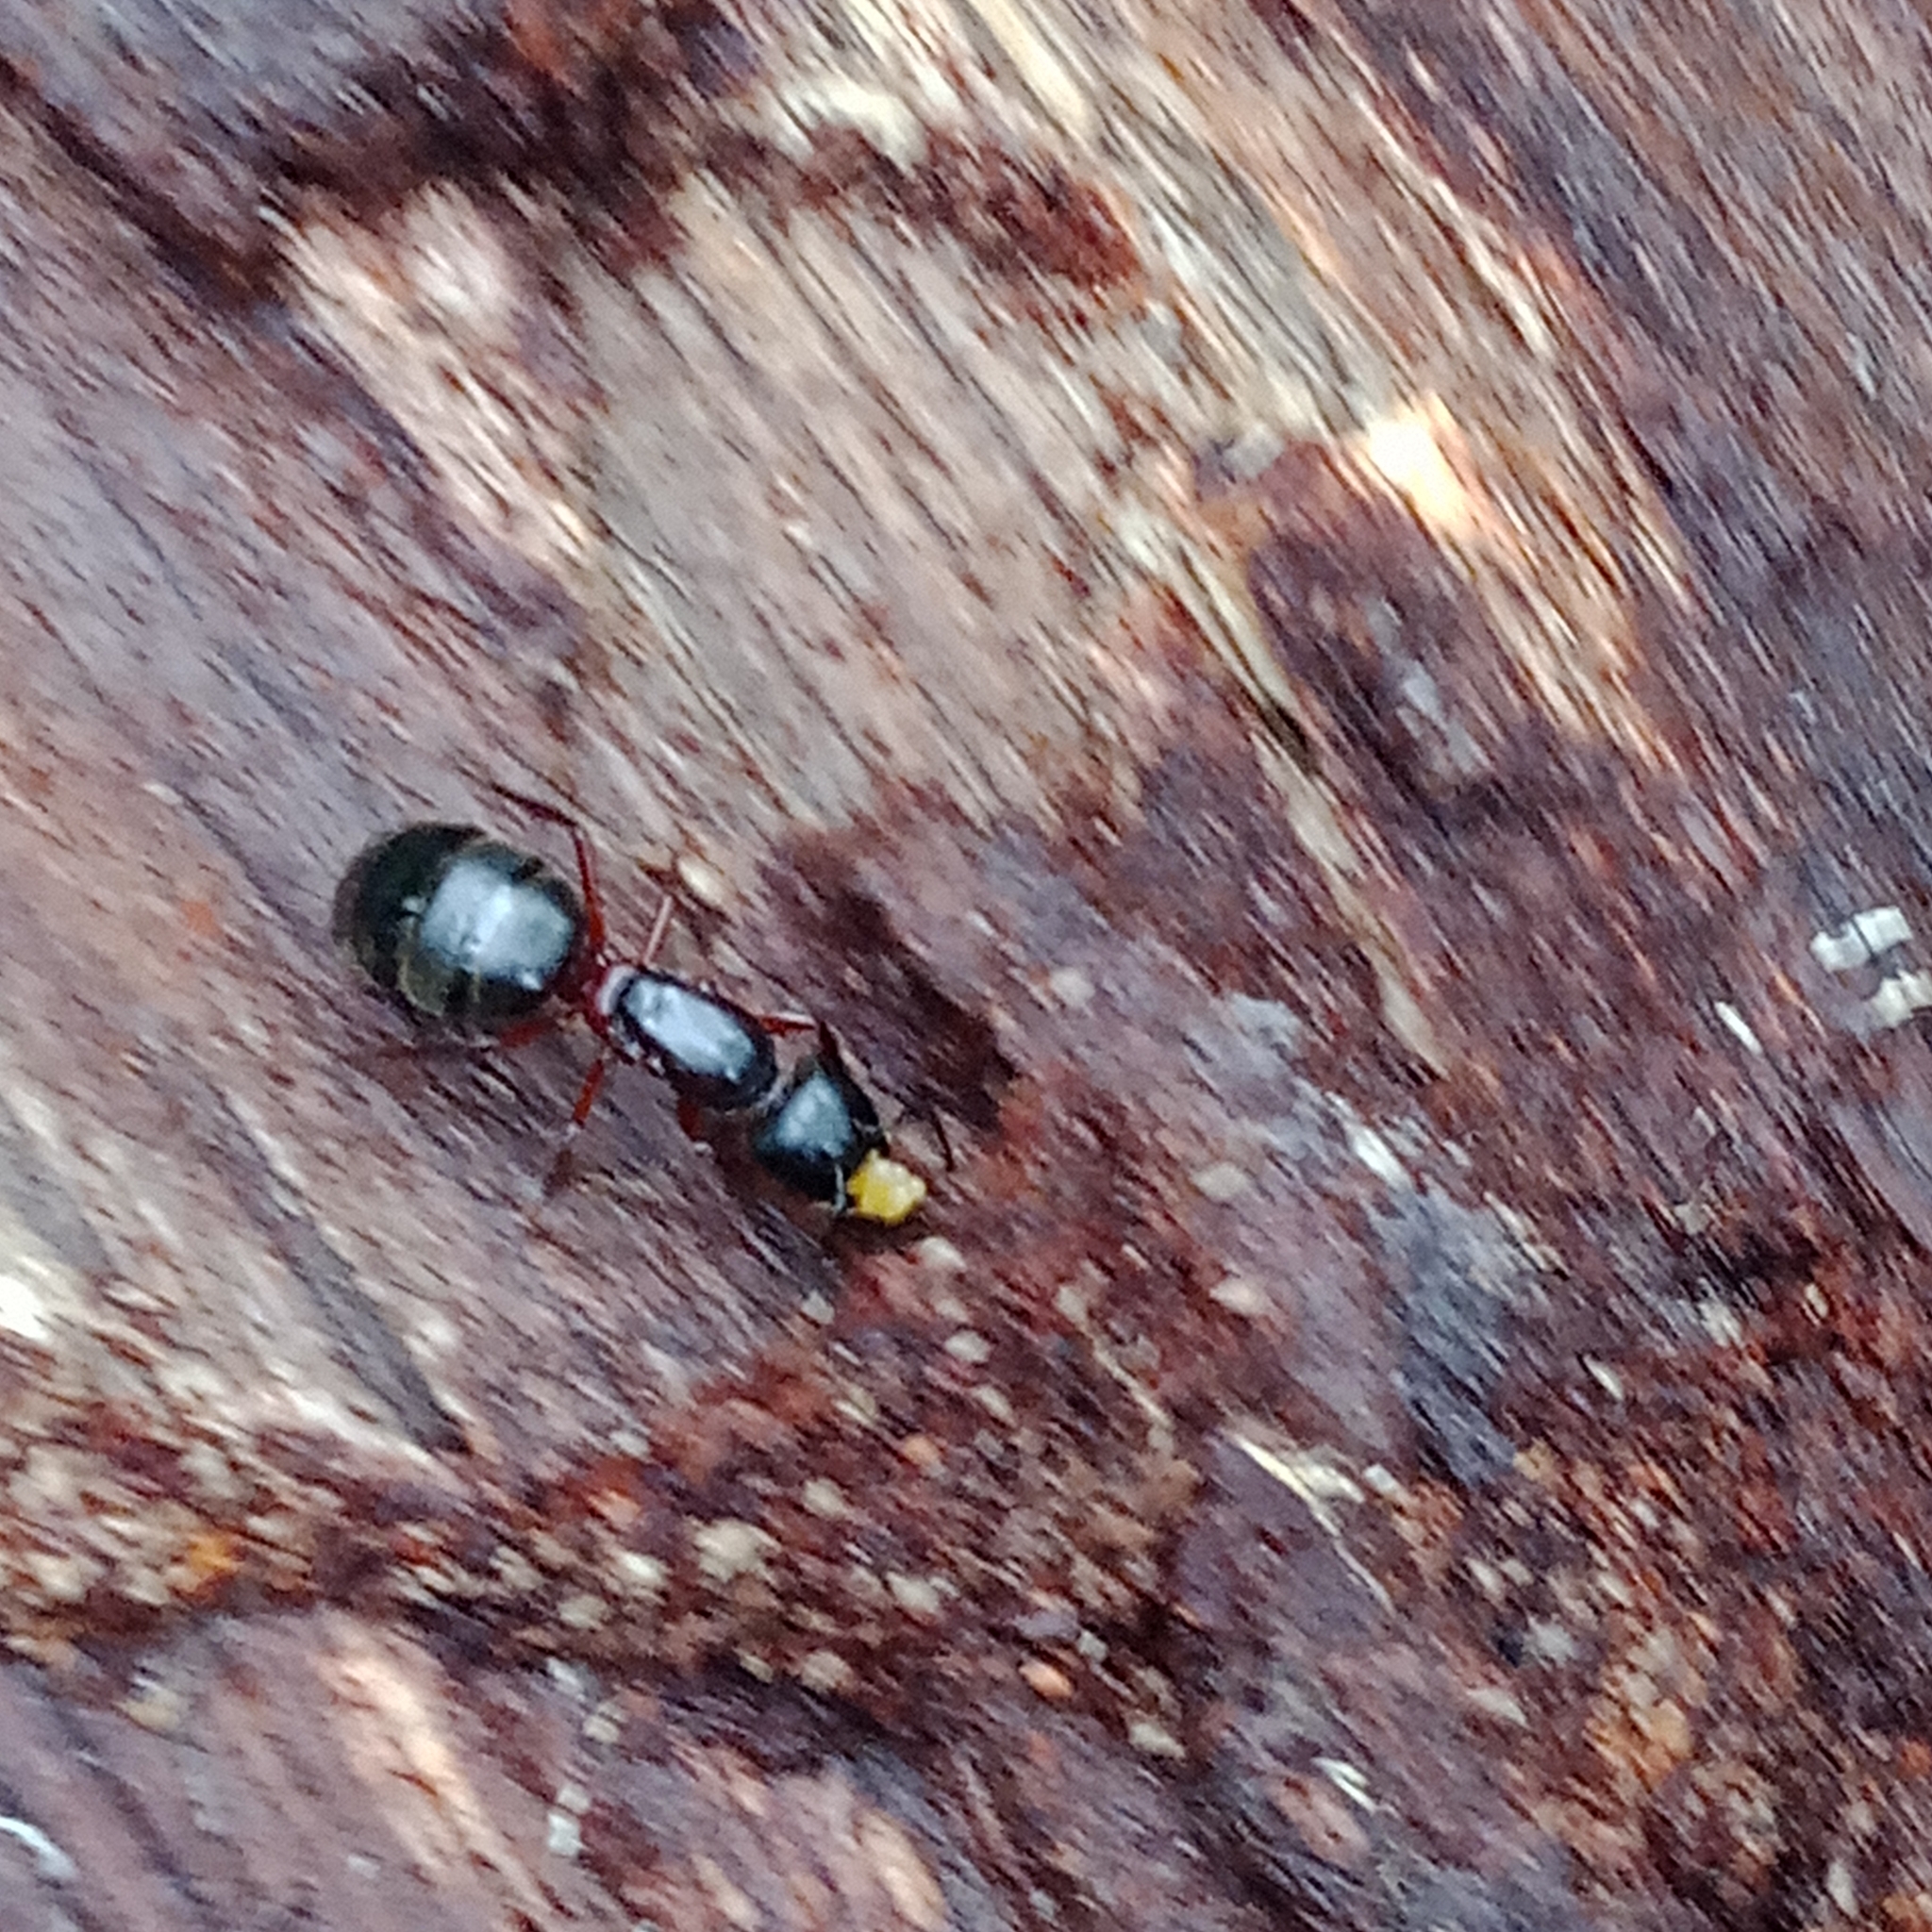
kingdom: Animalia
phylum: Arthropoda
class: Insecta
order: Hymenoptera
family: Formicidae
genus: Camponotus
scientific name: Camponotus herculeanus
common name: Hercules ant
